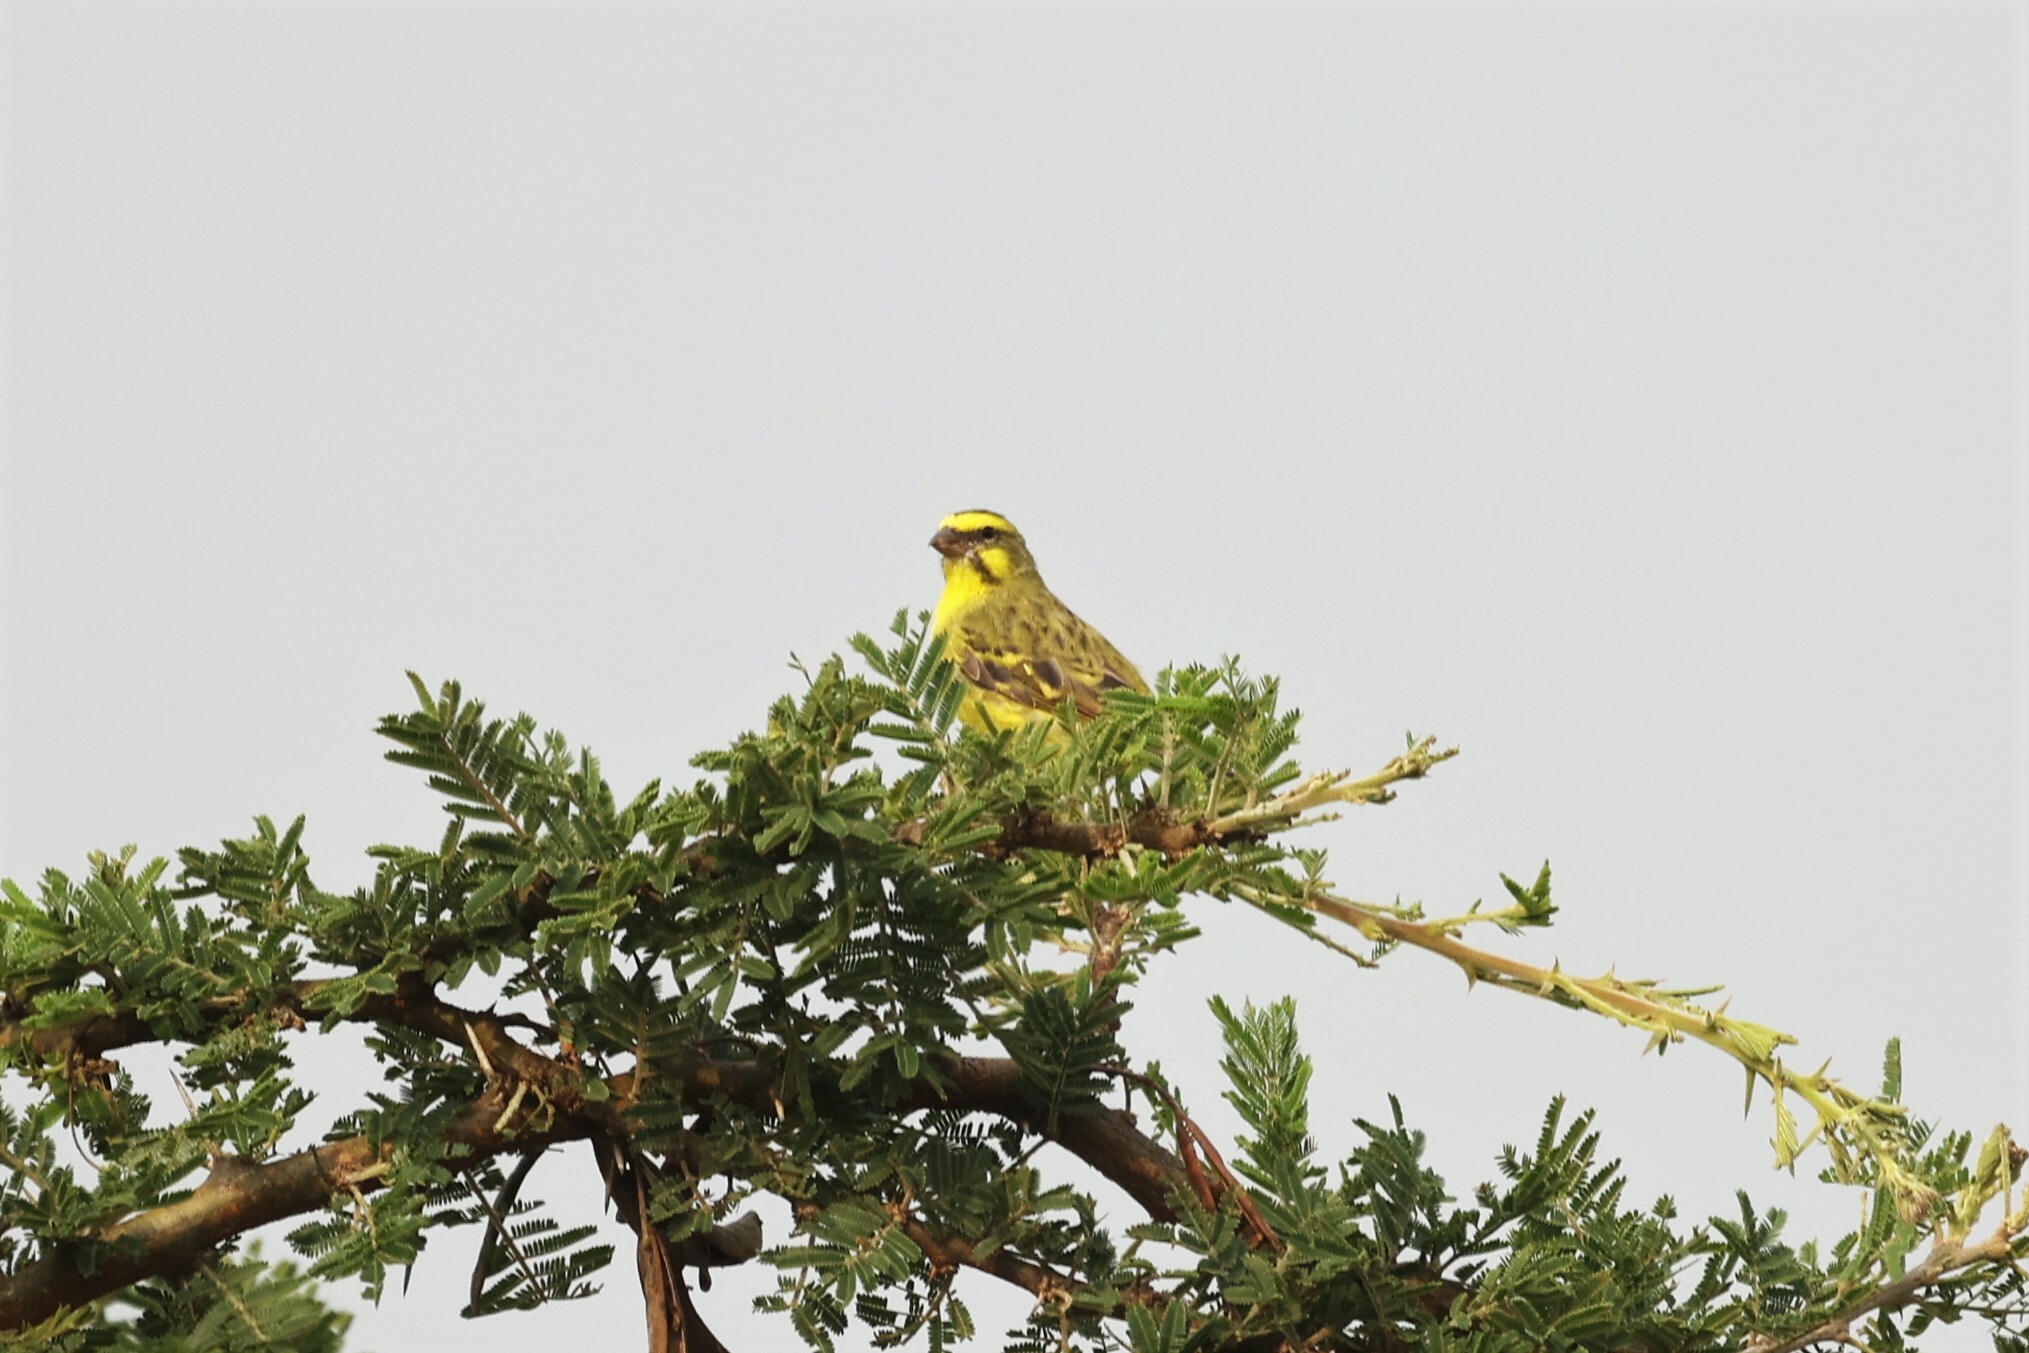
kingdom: Animalia
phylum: Chordata
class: Aves
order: Passeriformes
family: Fringillidae
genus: Crithagra
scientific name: Crithagra mozambica
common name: Yellow-fronted canary
